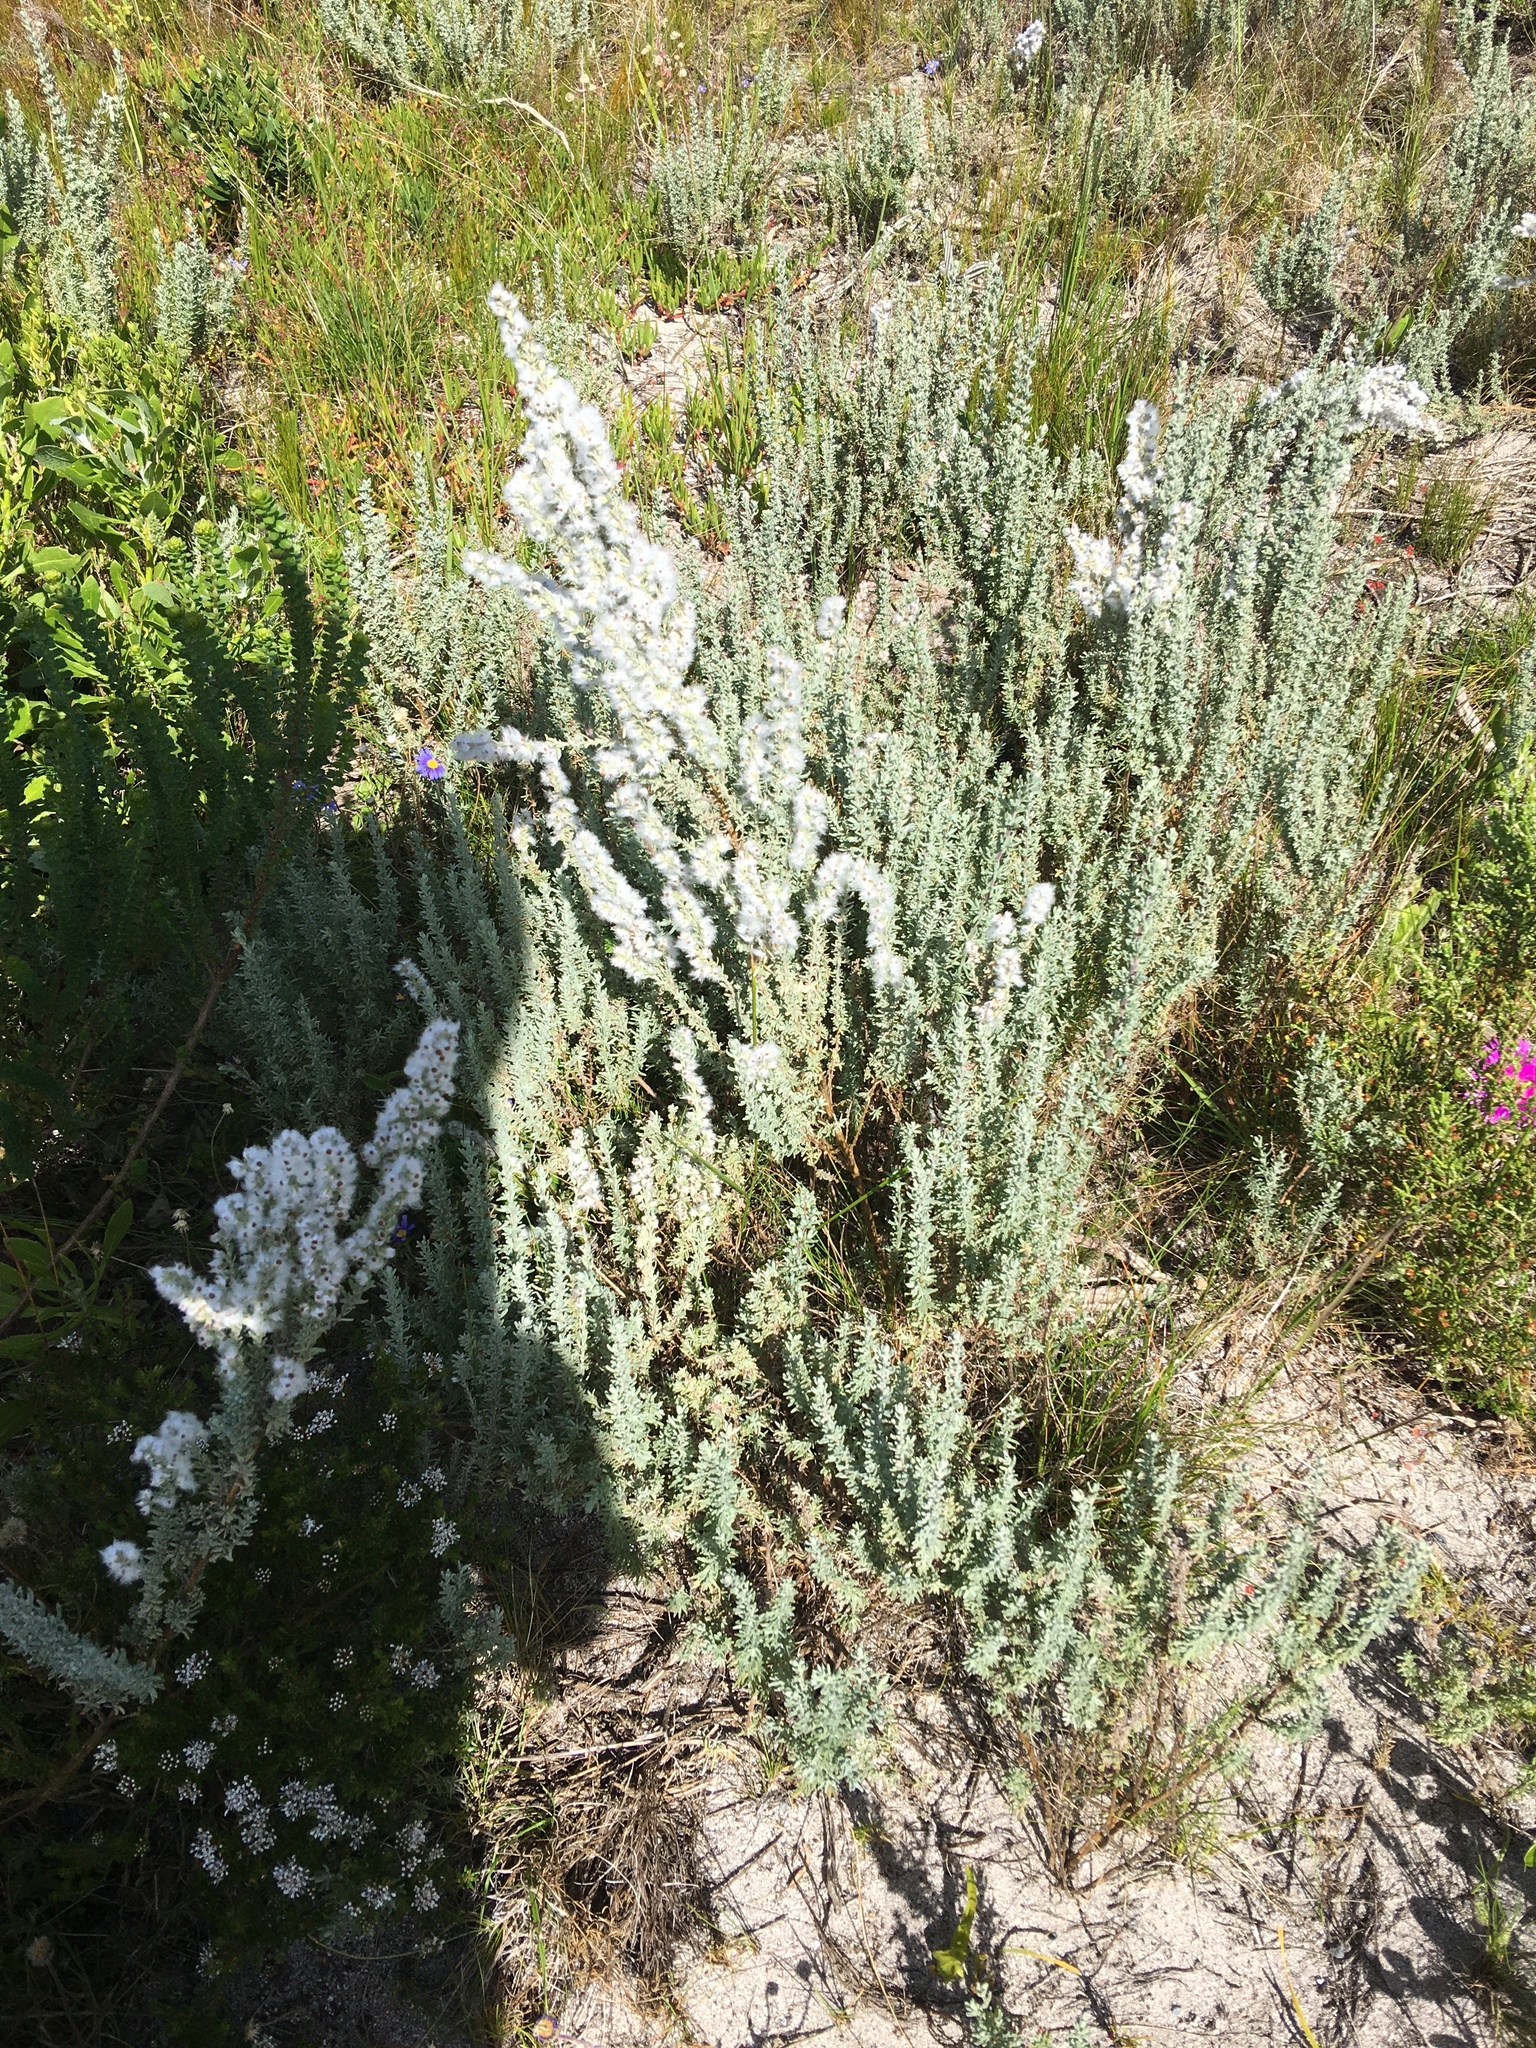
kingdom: Plantae
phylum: Tracheophyta
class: Magnoliopsida
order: Asterales
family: Asteraceae
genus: Eriocephalus
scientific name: Eriocephalus racemosus
